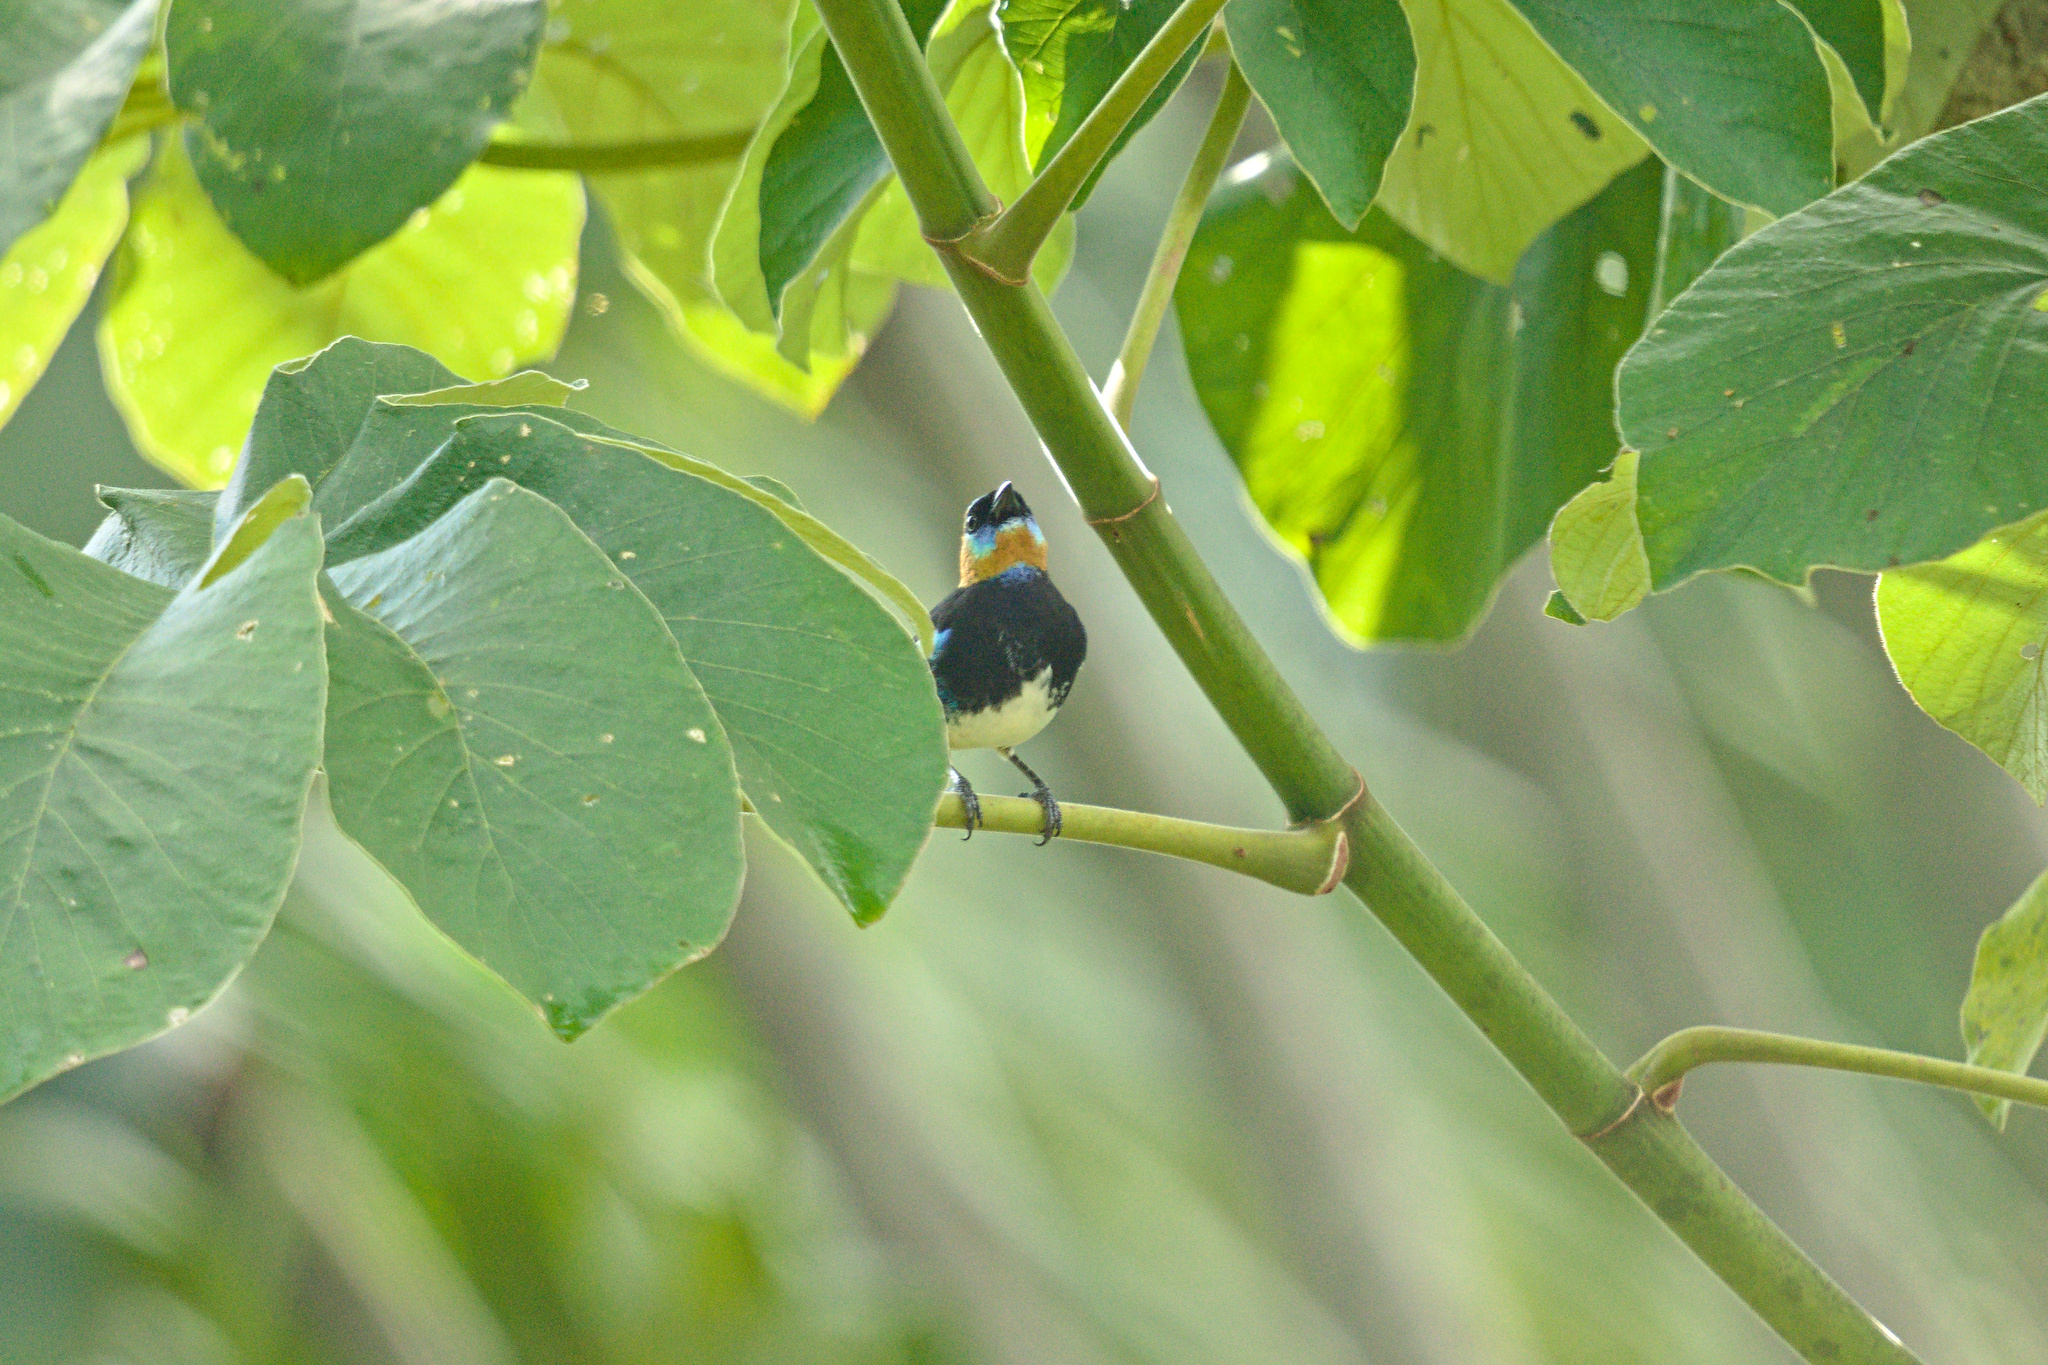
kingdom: Animalia
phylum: Chordata
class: Aves
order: Passeriformes
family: Thraupidae
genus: Stilpnia
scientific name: Stilpnia larvata
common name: Golden-hooded tanager
